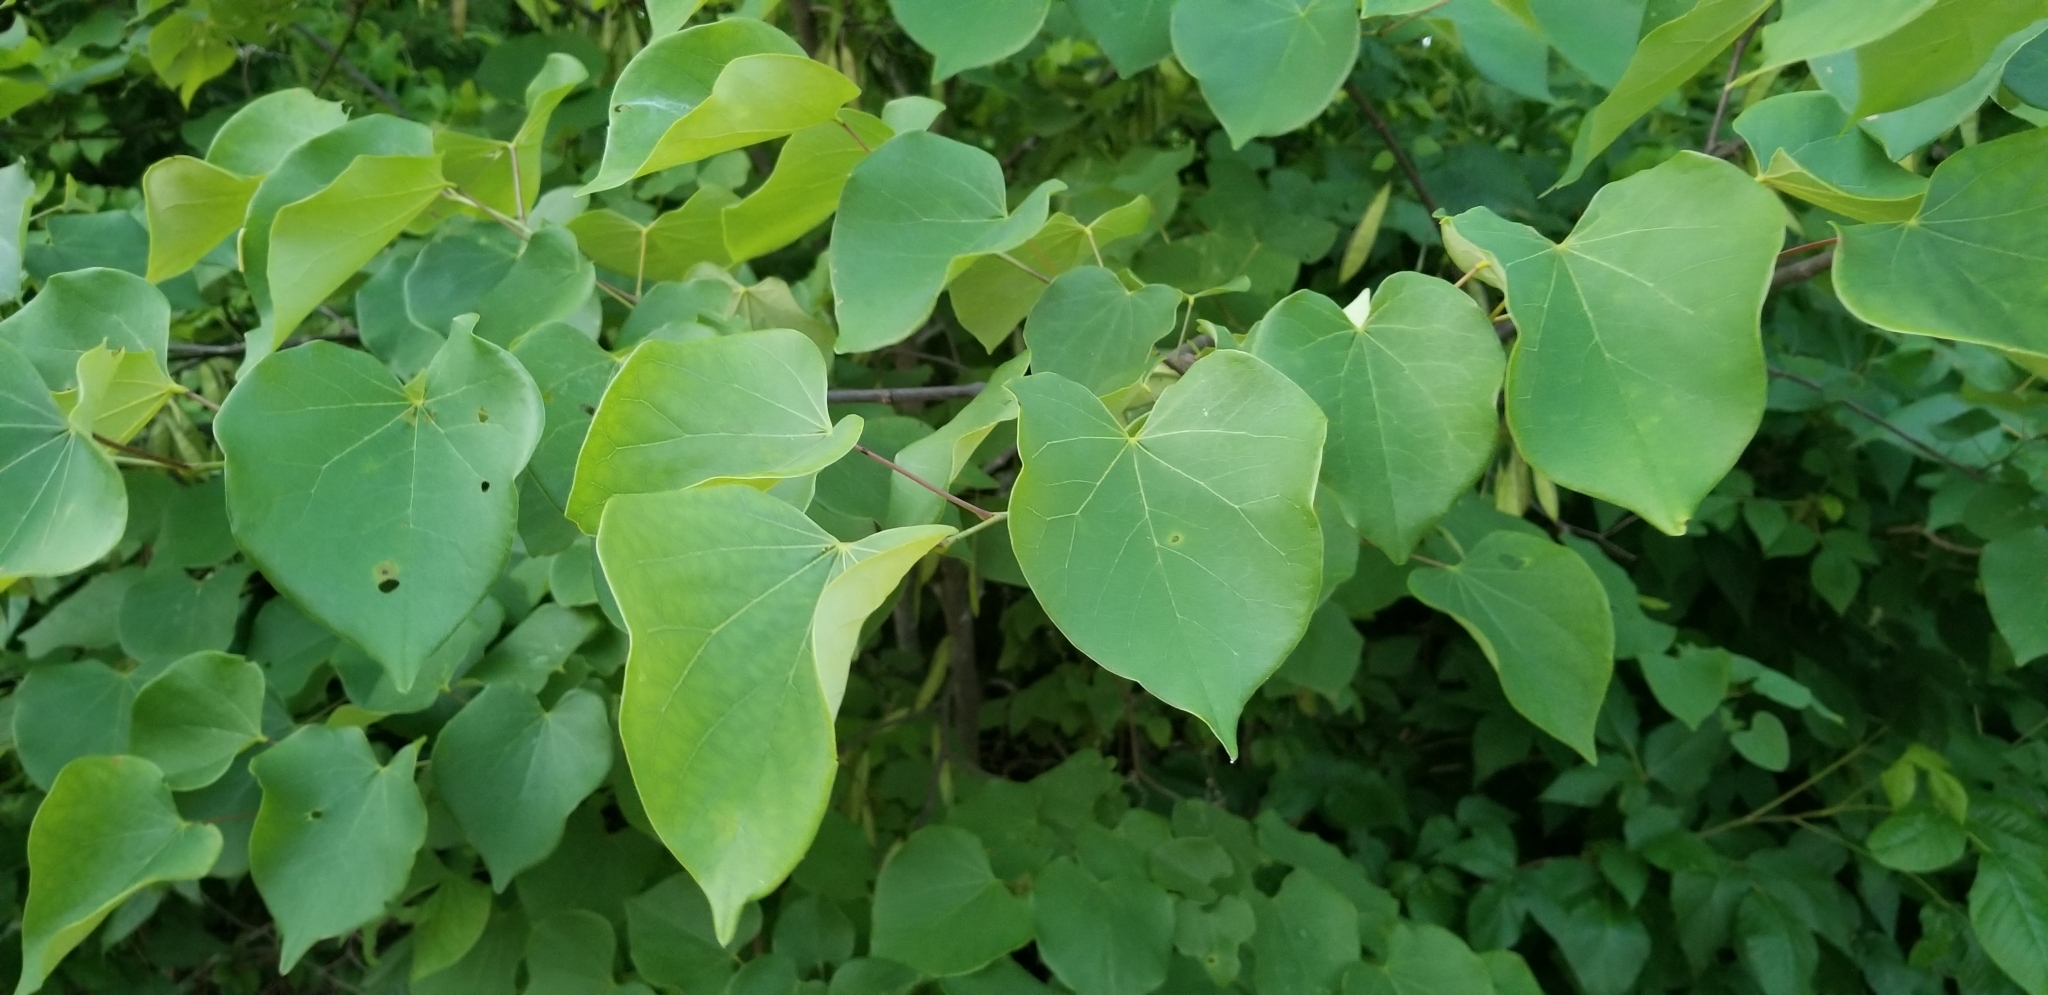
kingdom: Plantae
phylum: Tracheophyta
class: Magnoliopsida
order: Fabales
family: Fabaceae
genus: Cercis
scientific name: Cercis canadensis
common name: Eastern redbud
